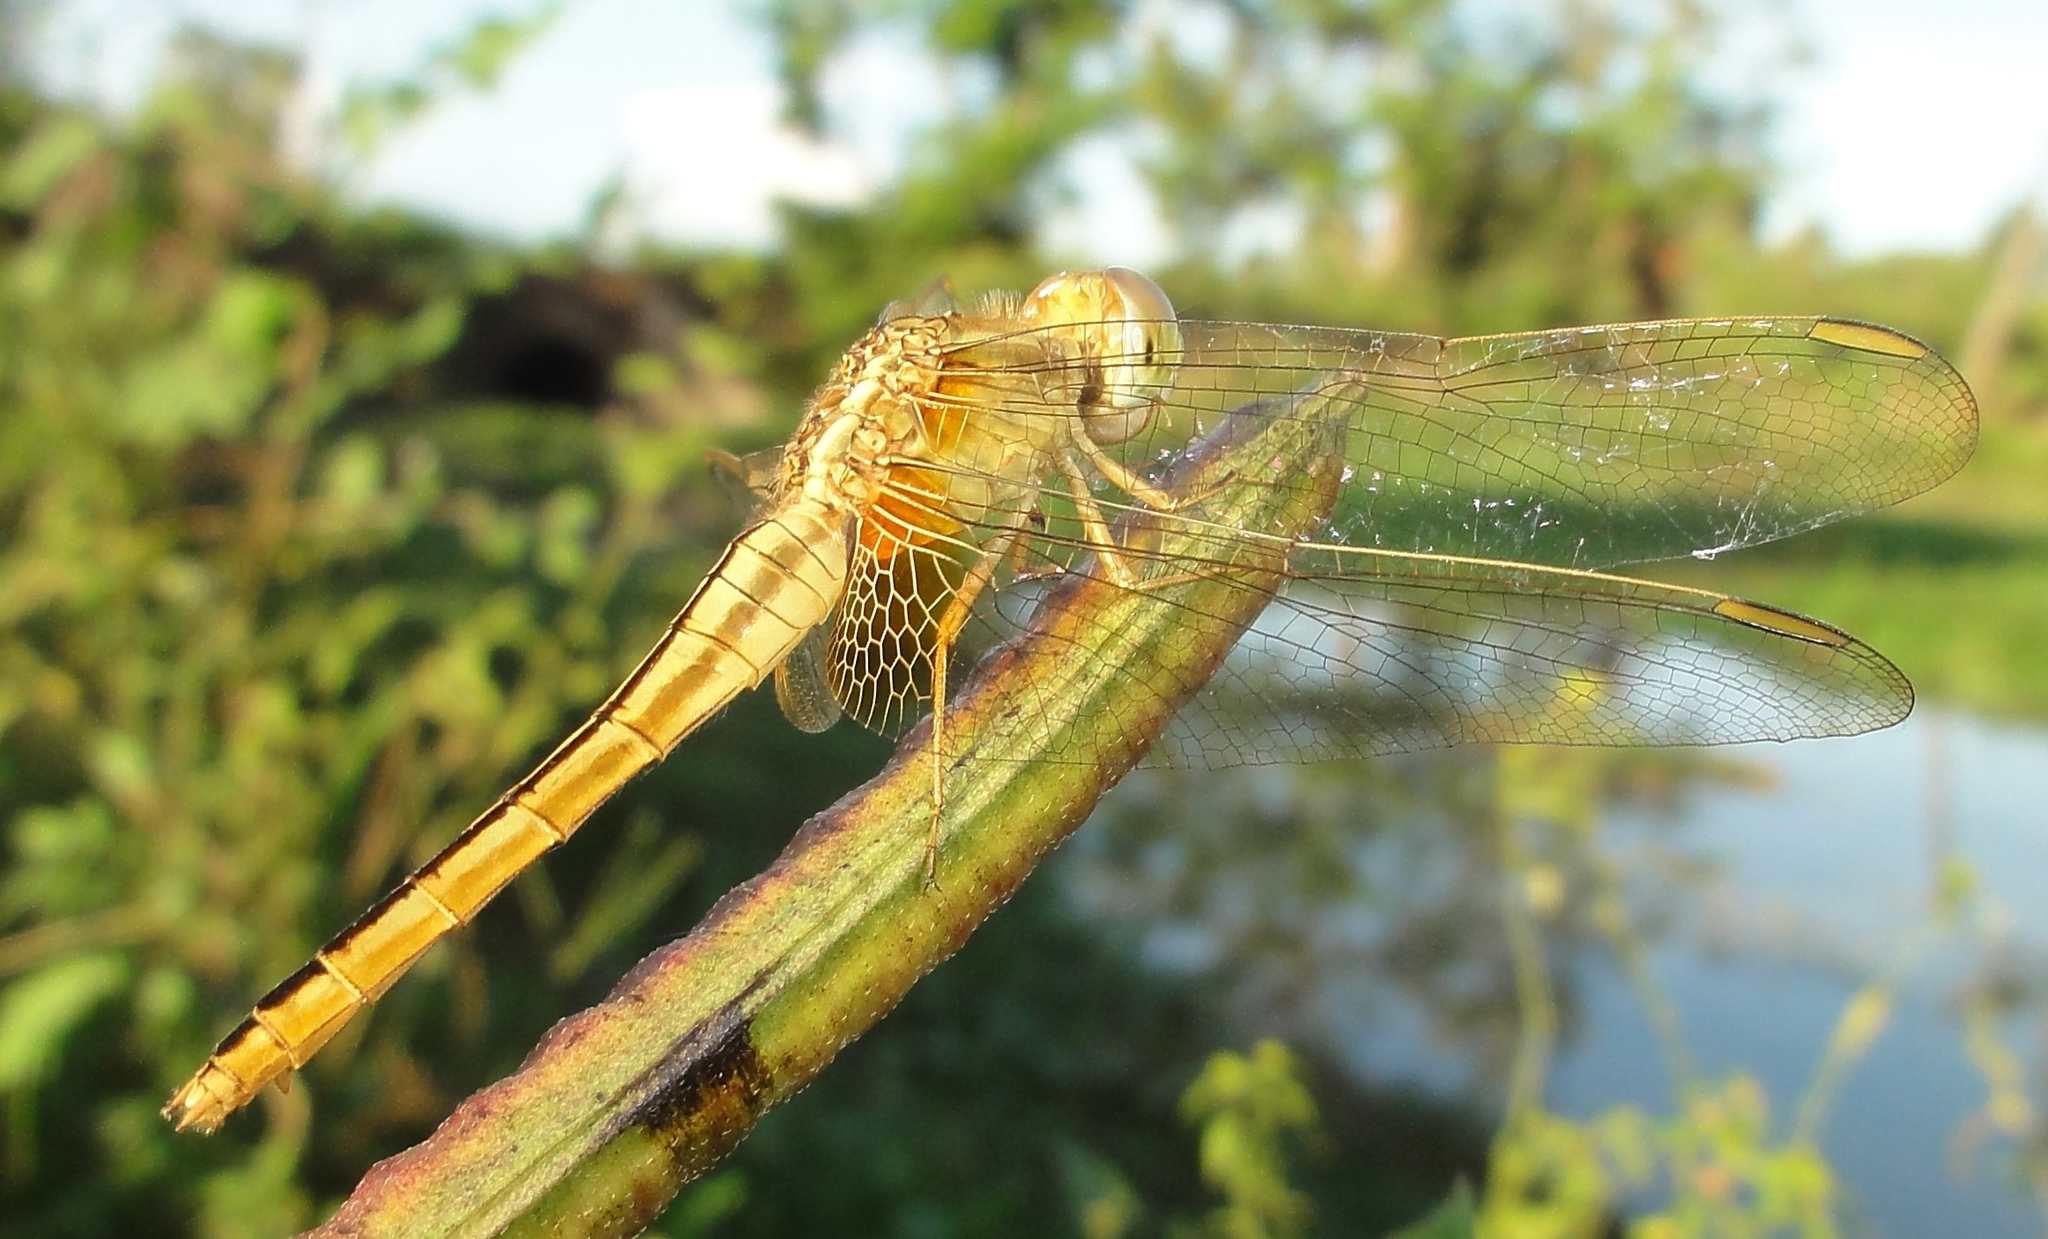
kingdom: Animalia
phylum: Arthropoda
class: Insecta
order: Odonata
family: Libellulidae
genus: Crocothemis
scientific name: Crocothemis servilia
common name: Scarlet skimmer
